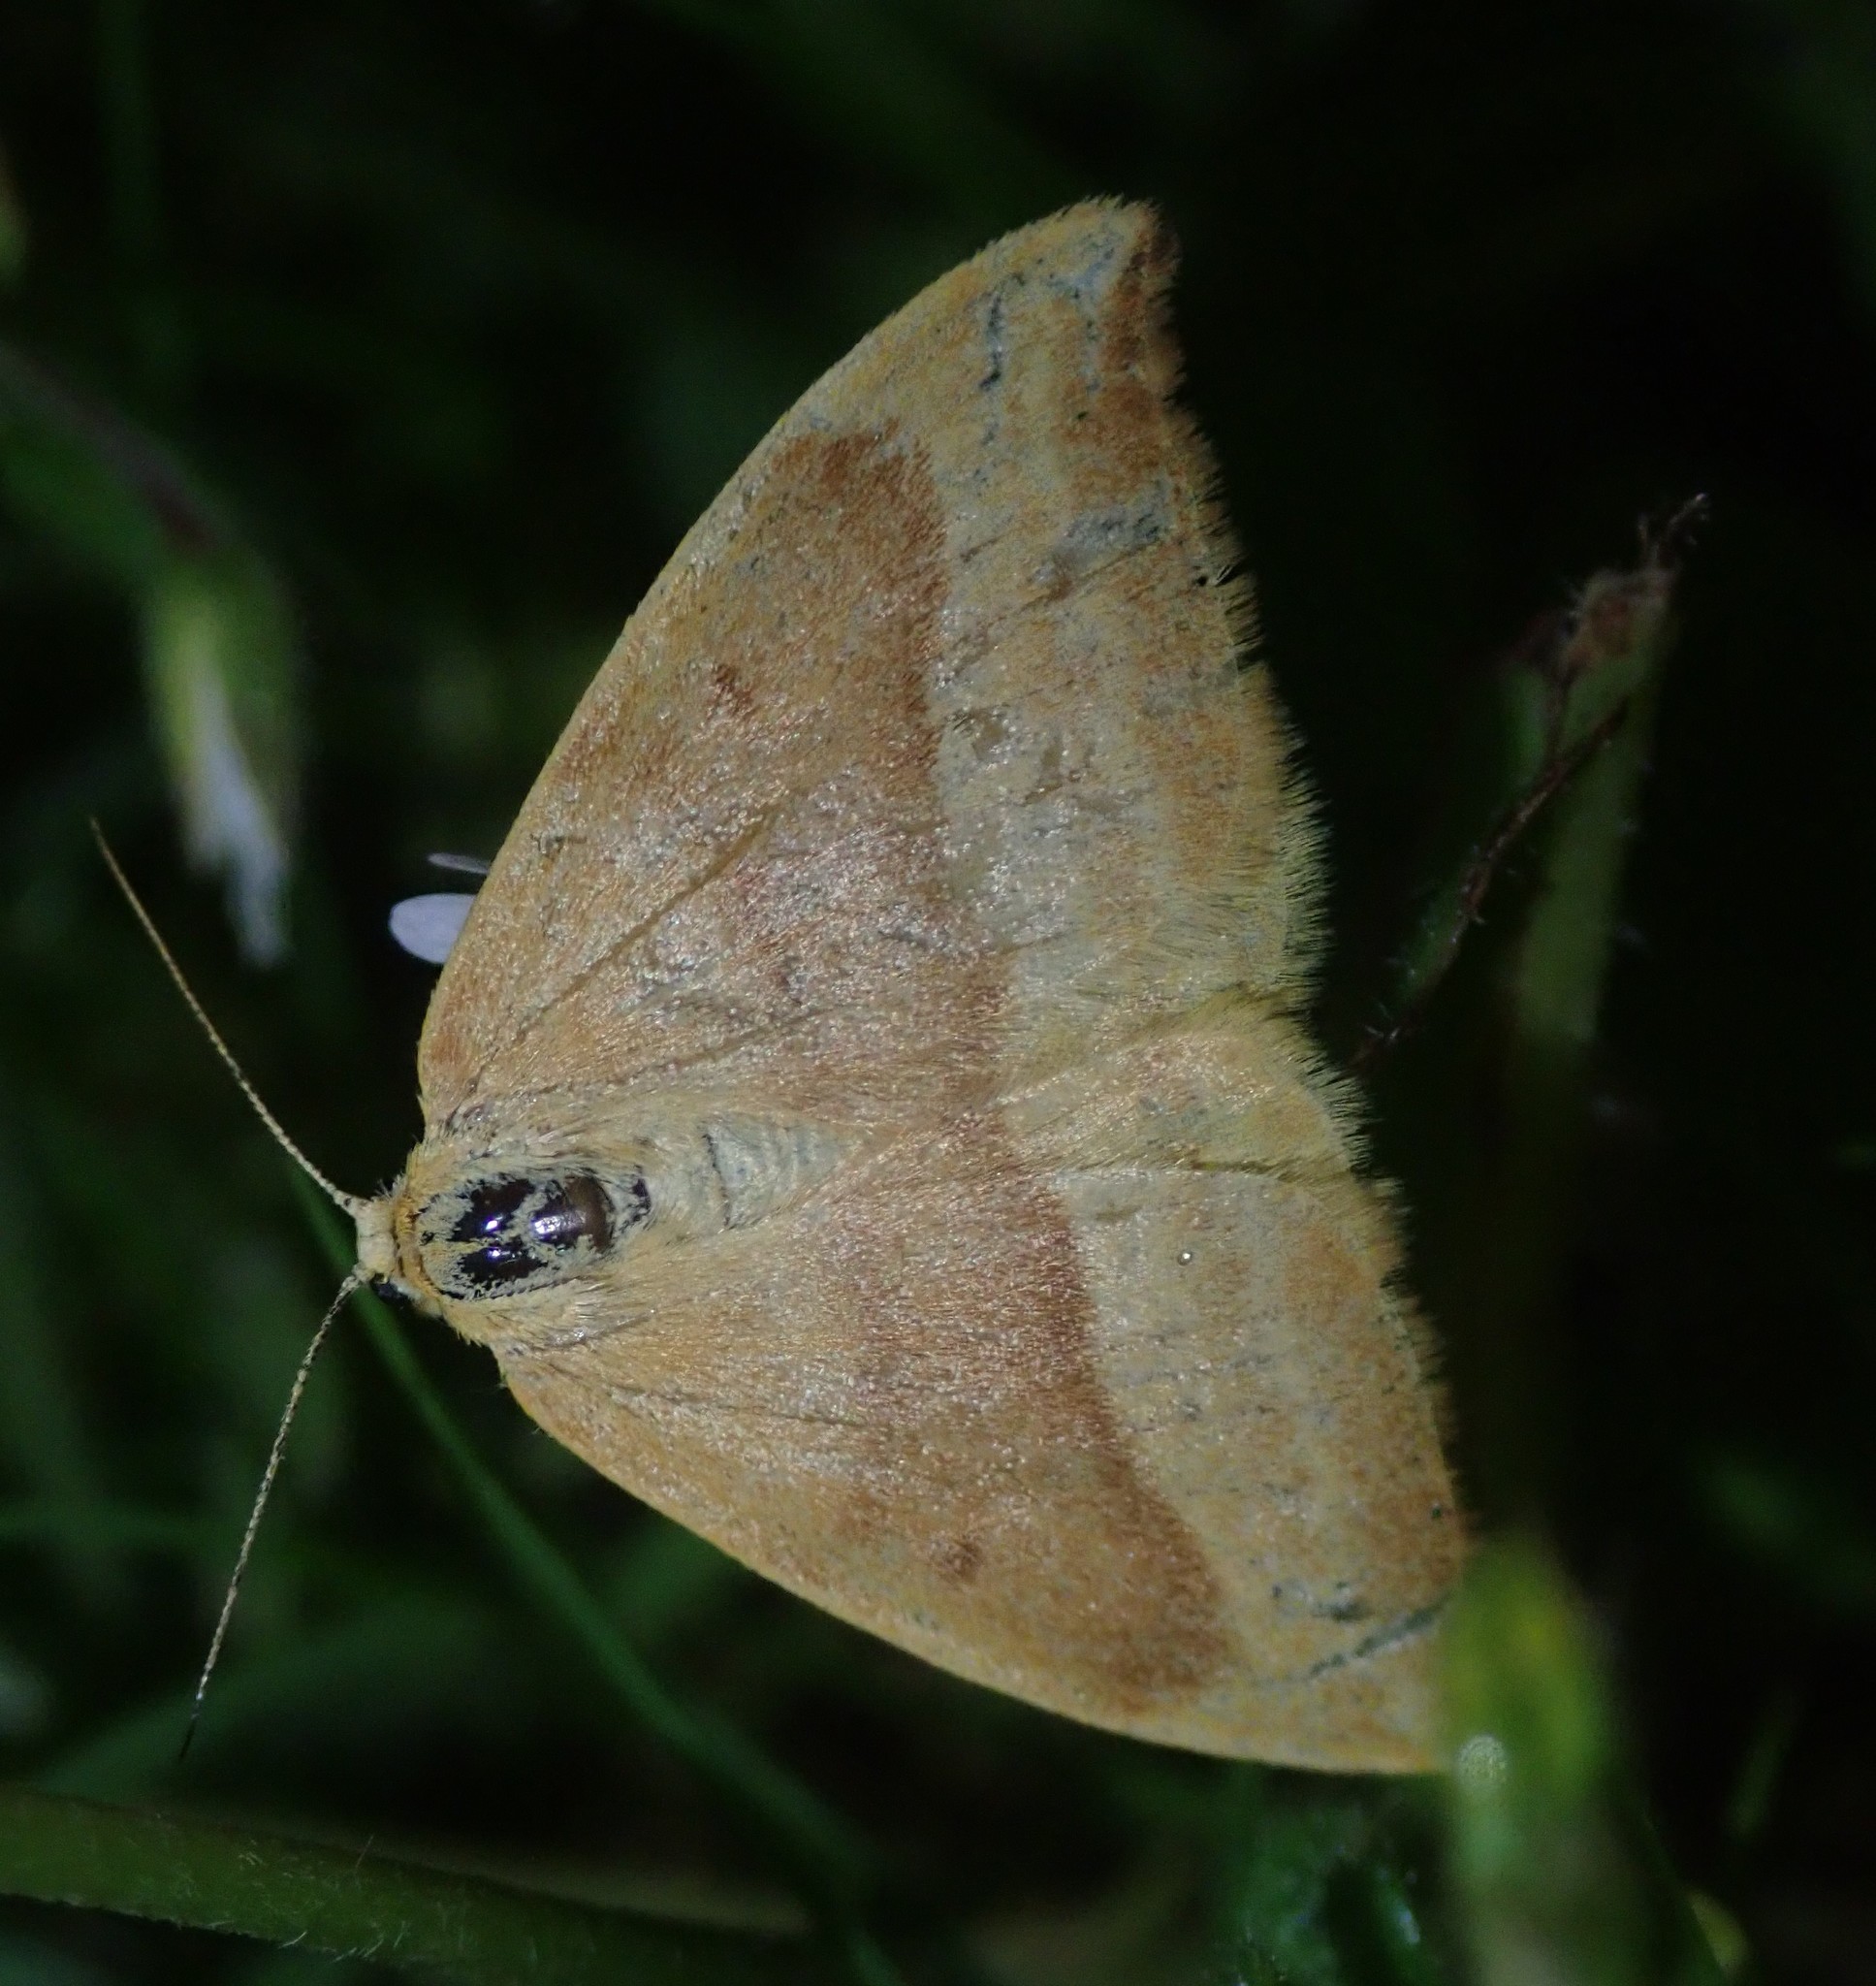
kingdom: Animalia
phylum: Arthropoda
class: Insecta
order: Lepidoptera
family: Drepanidae
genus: Watsonalla
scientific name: Watsonalla cultraria
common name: Barred hook-tip
